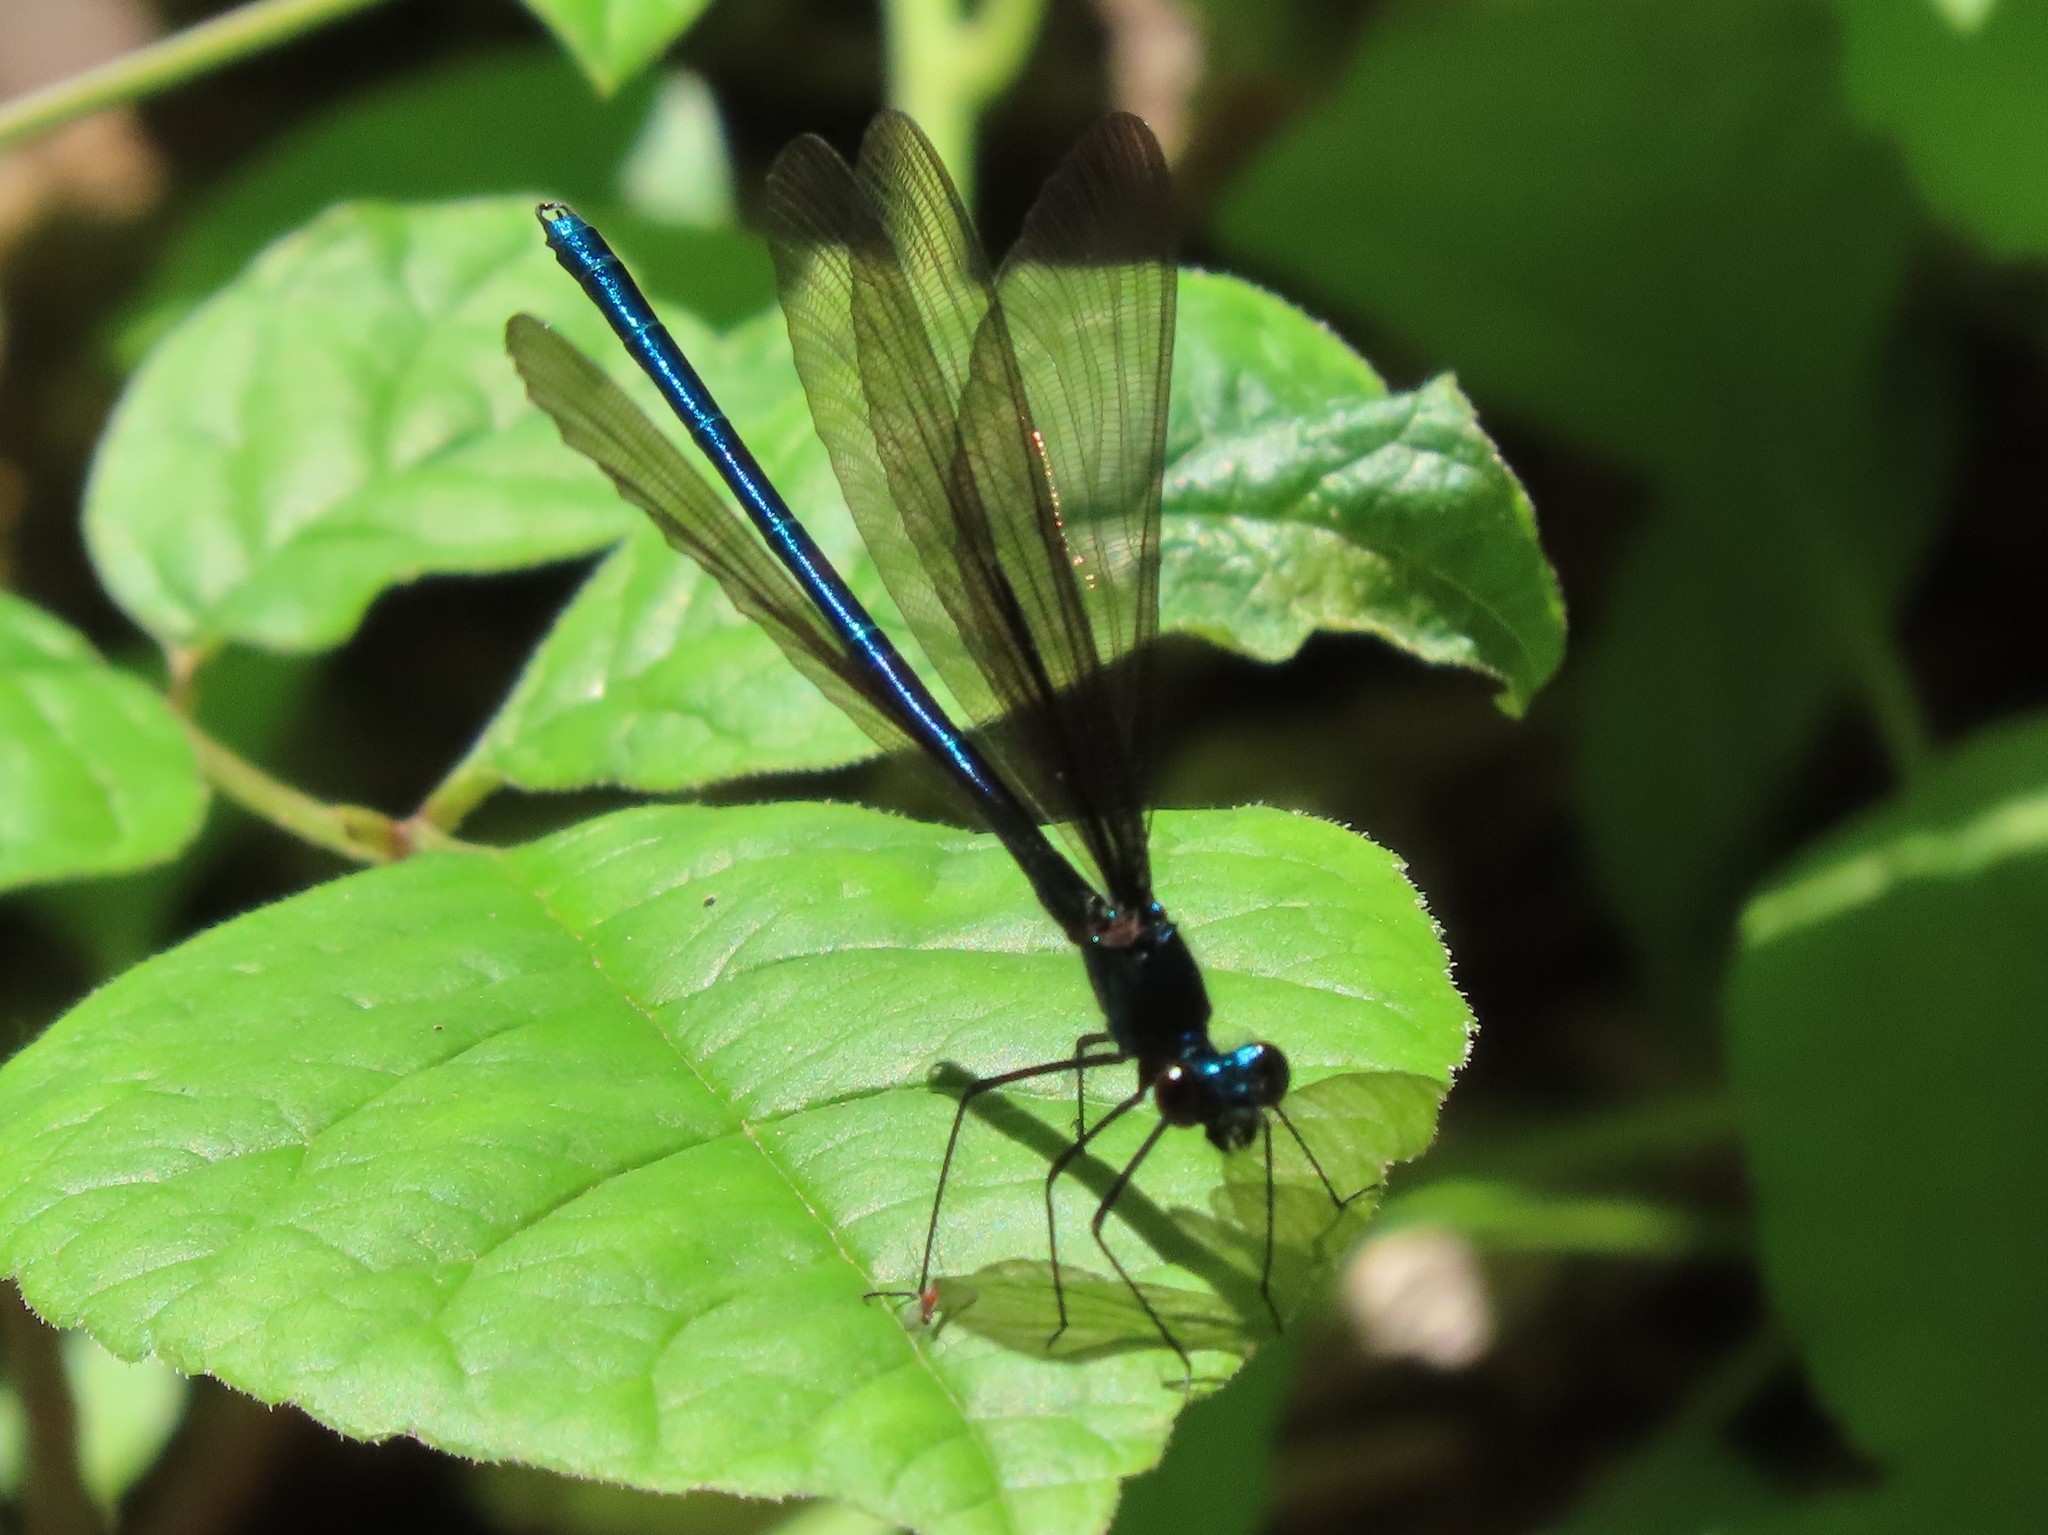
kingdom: Animalia
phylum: Arthropoda
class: Insecta
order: Odonata
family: Calopterygidae
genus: Calopteryx
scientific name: Calopteryx maculata
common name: Ebony jewelwing
